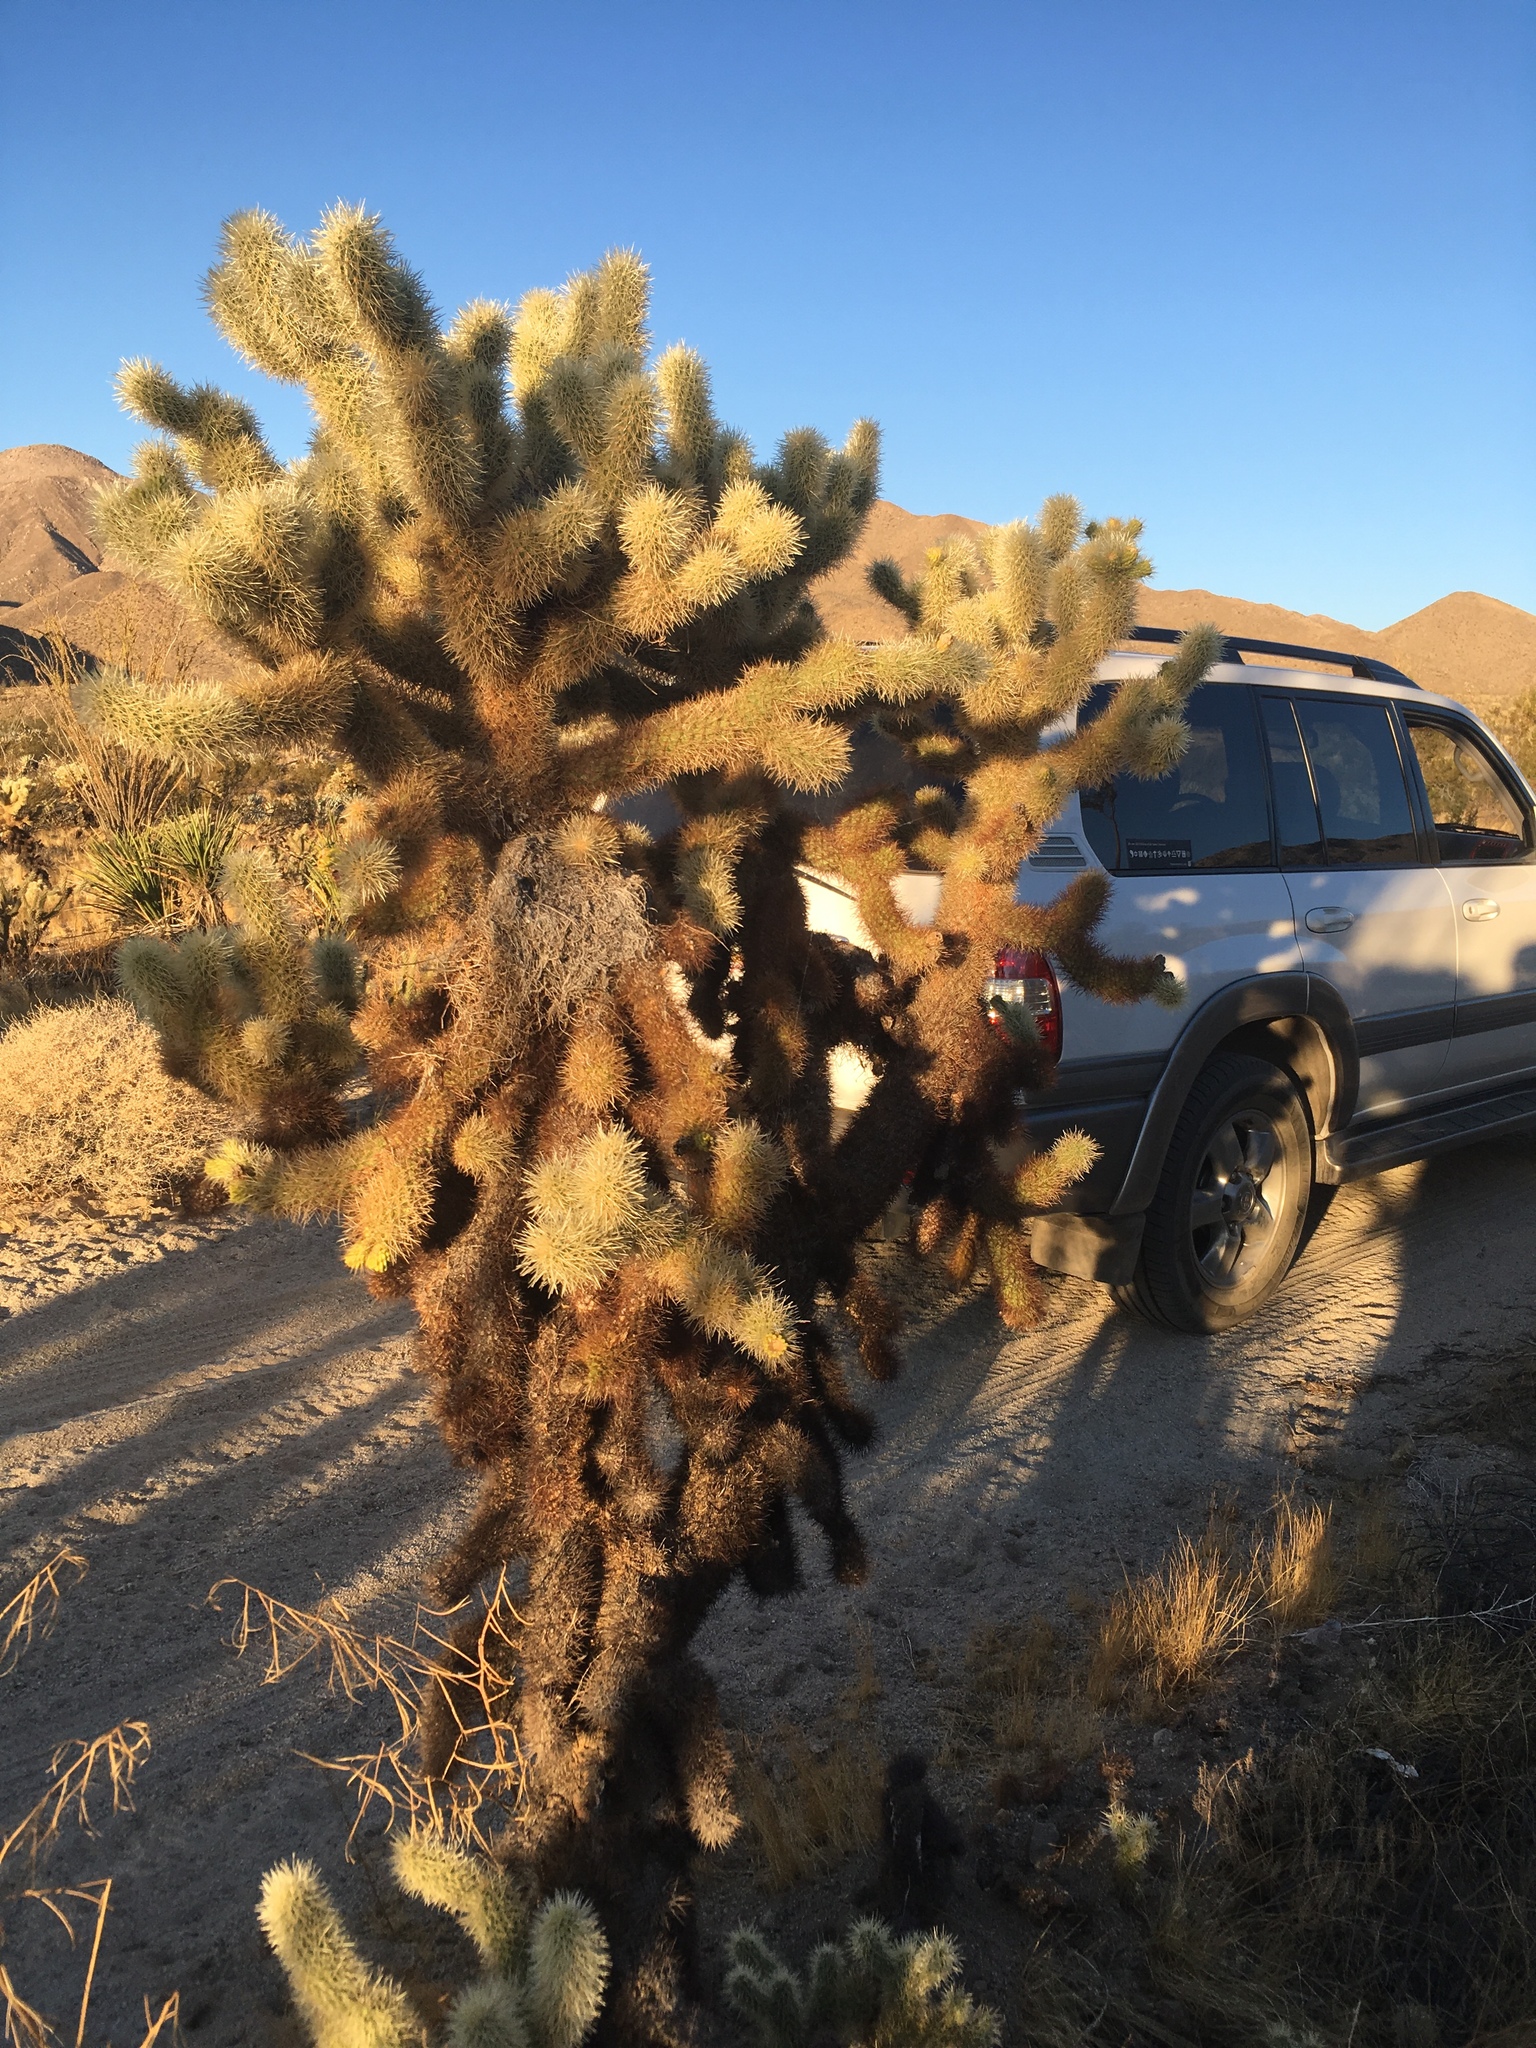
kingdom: Plantae
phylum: Tracheophyta
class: Magnoliopsida
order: Caryophyllales
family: Cactaceae
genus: Cylindropuntia
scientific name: Cylindropuntia fosbergii
